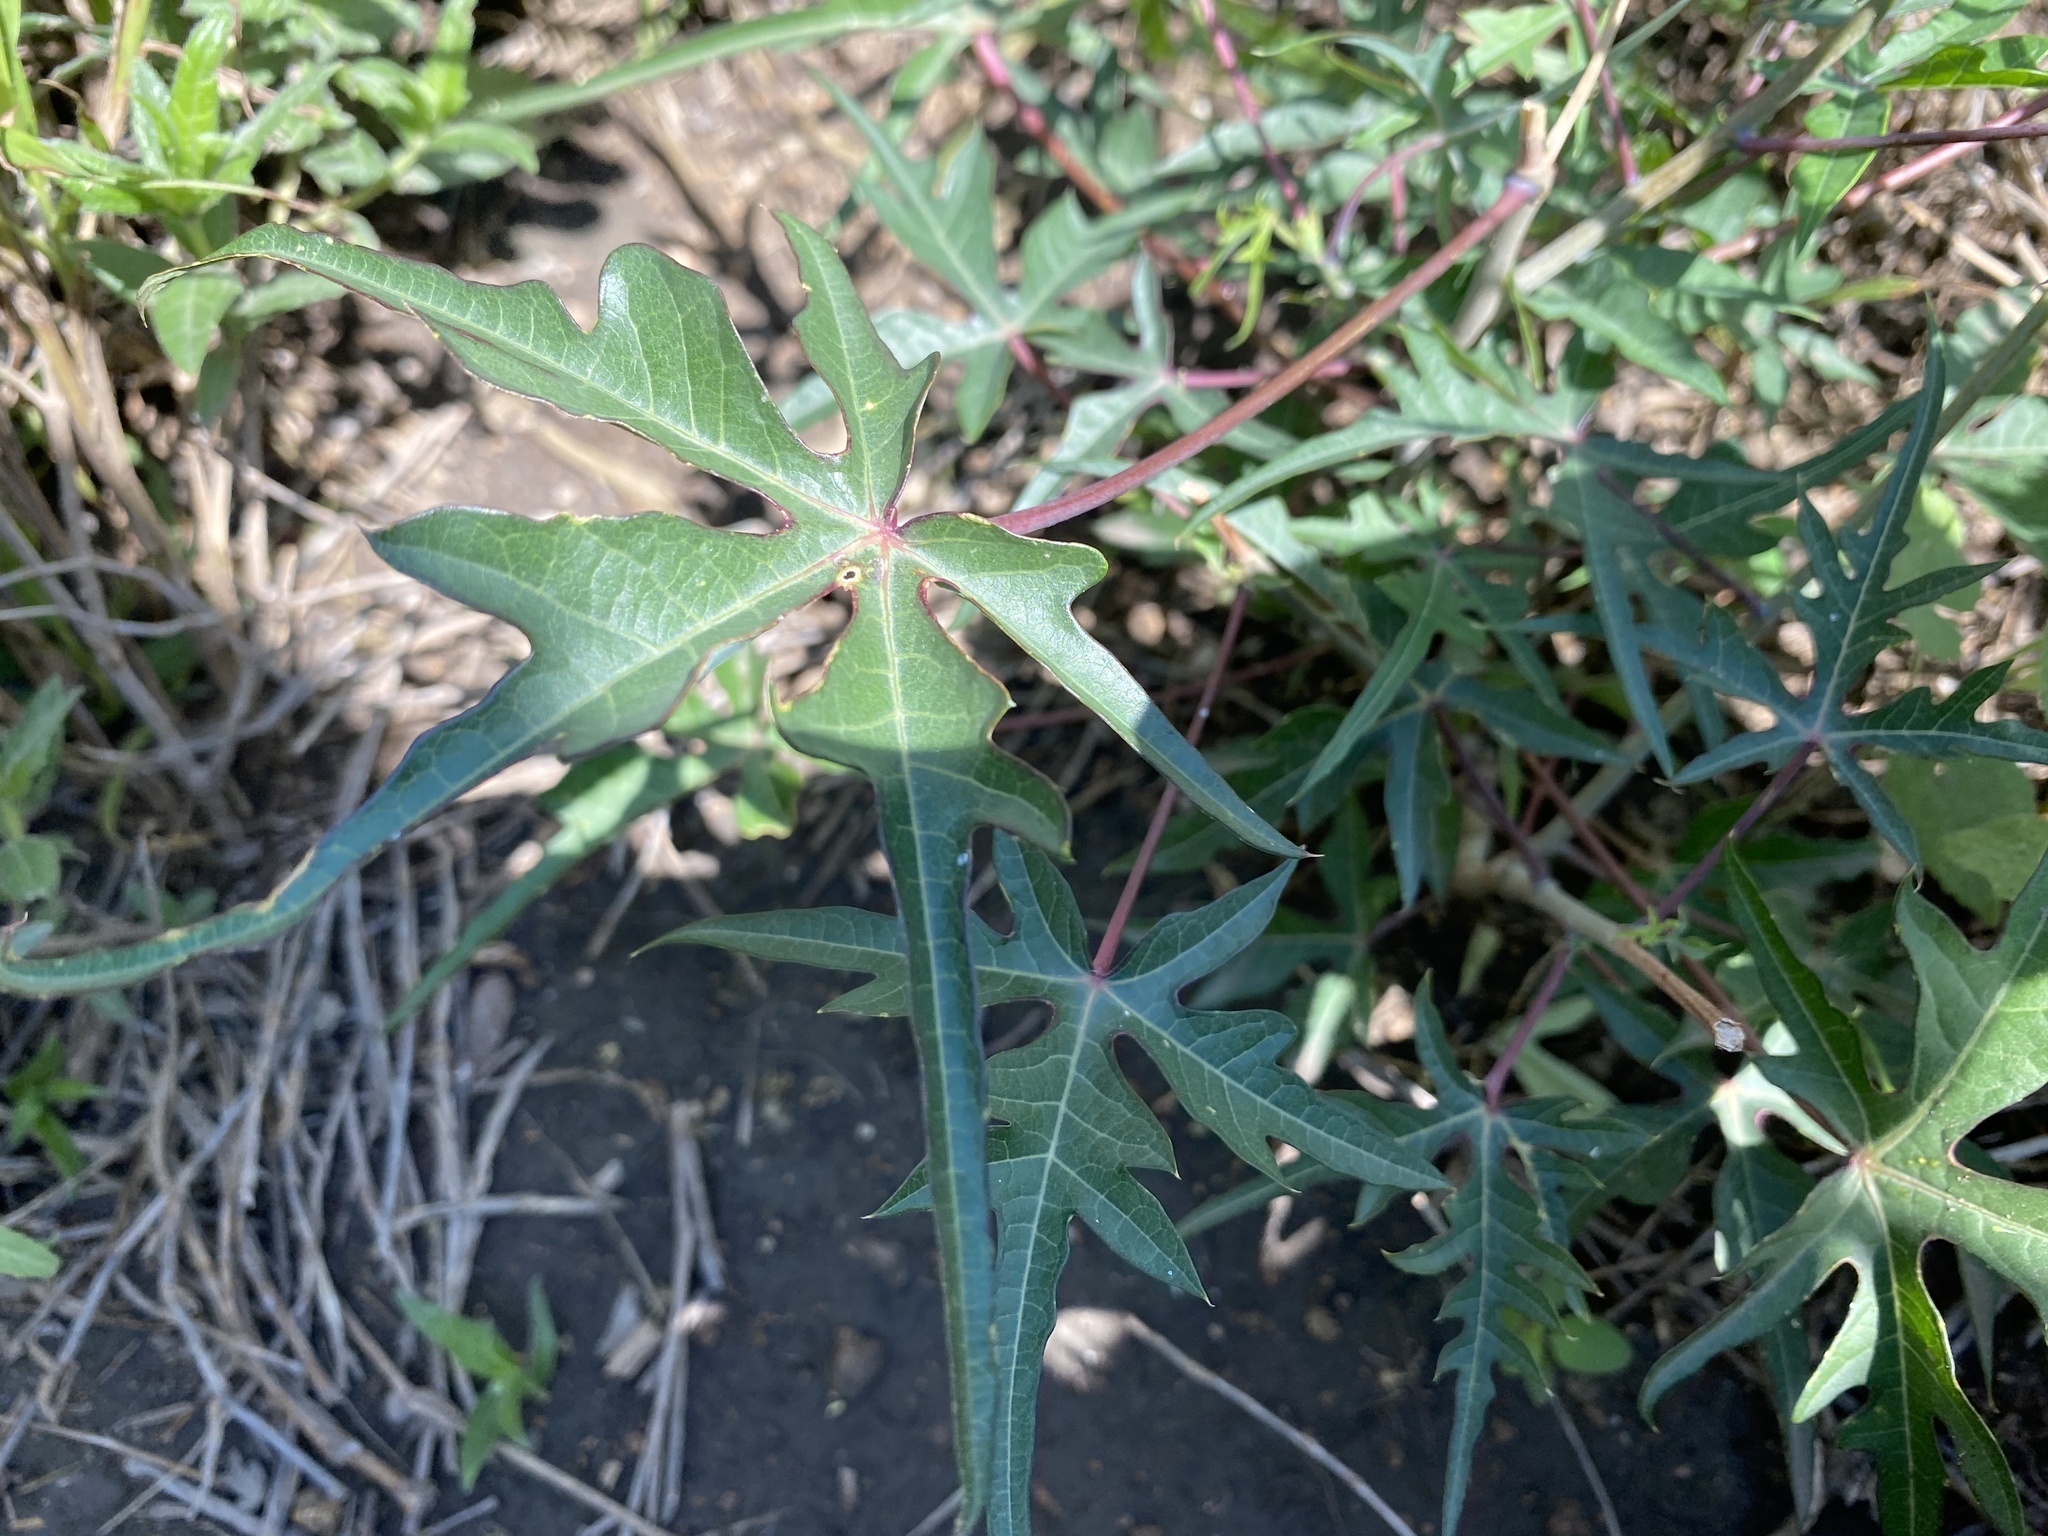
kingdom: Plantae
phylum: Tracheophyta
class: Magnoliopsida
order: Malpighiales
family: Euphorbiaceae
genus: Manihot
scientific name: Manihot subspicata
